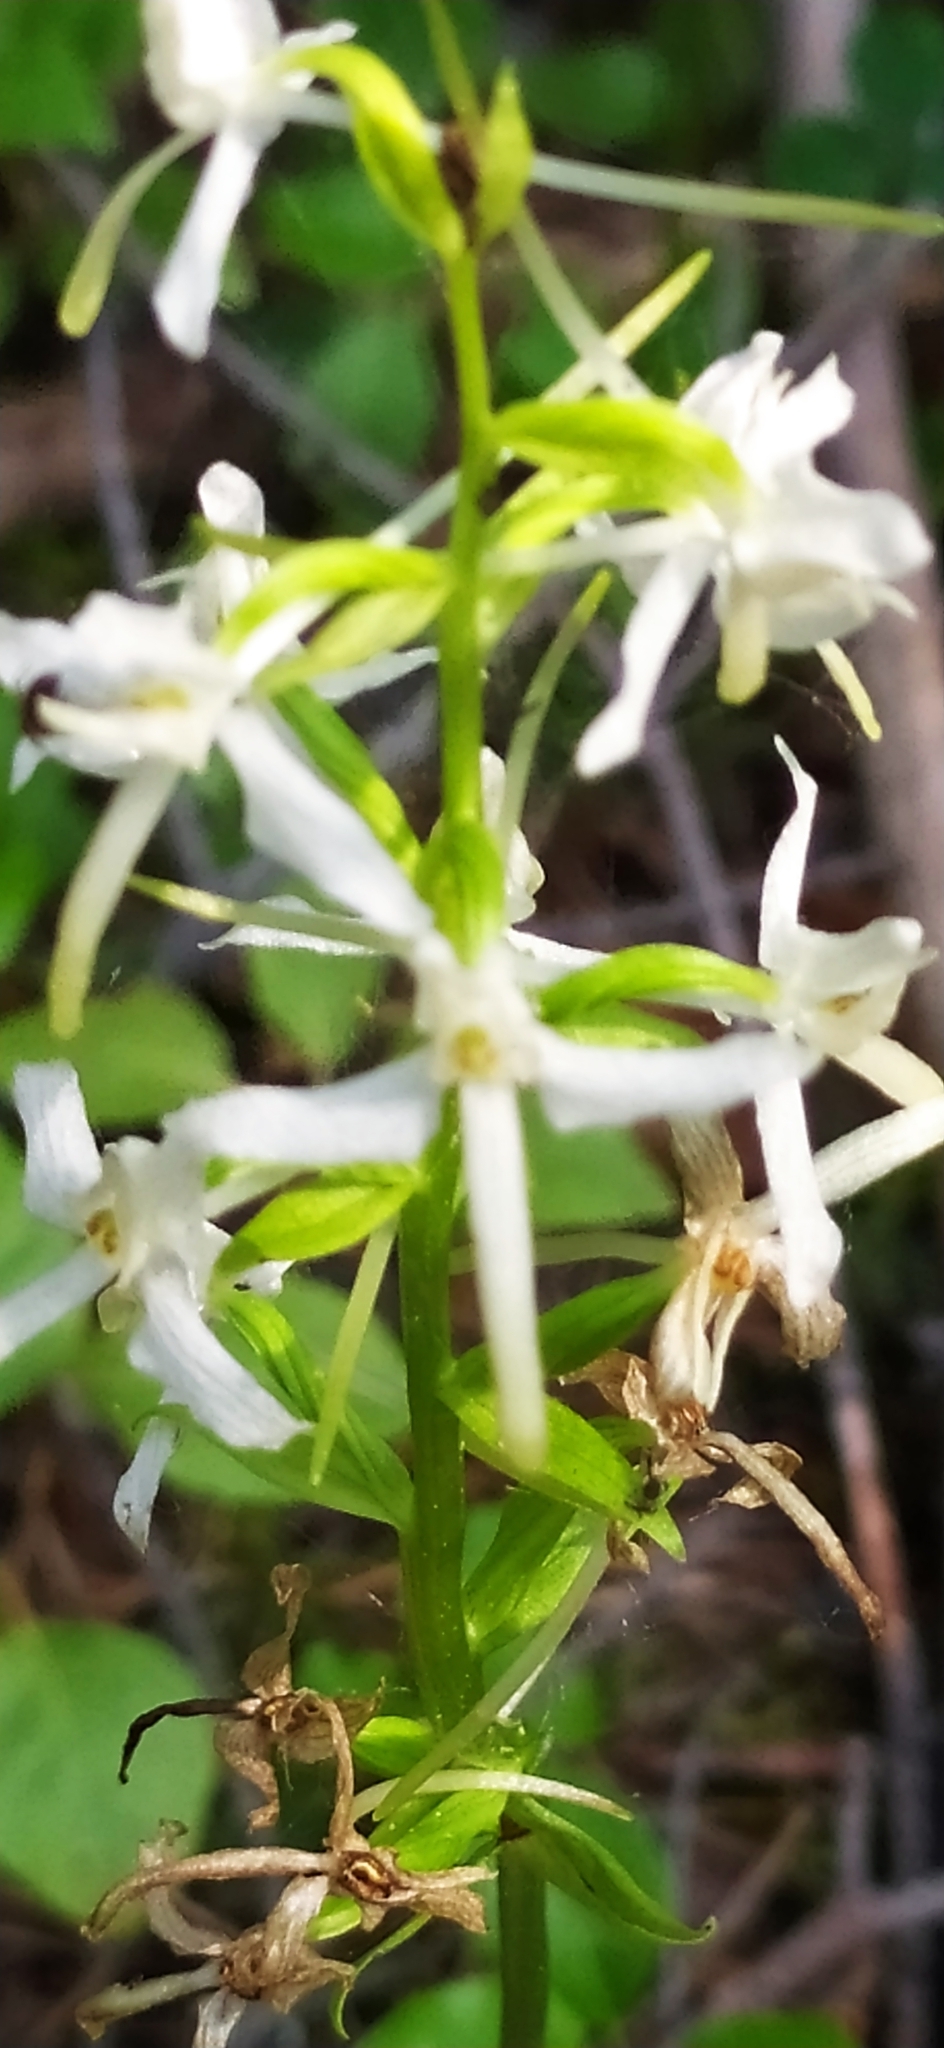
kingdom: Plantae
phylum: Tracheophyta
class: Liliopsida
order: Asparagales
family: Orchidaceae
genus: Platanthera
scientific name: Platanthera bifolia
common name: Lesser butterfly-orchid
